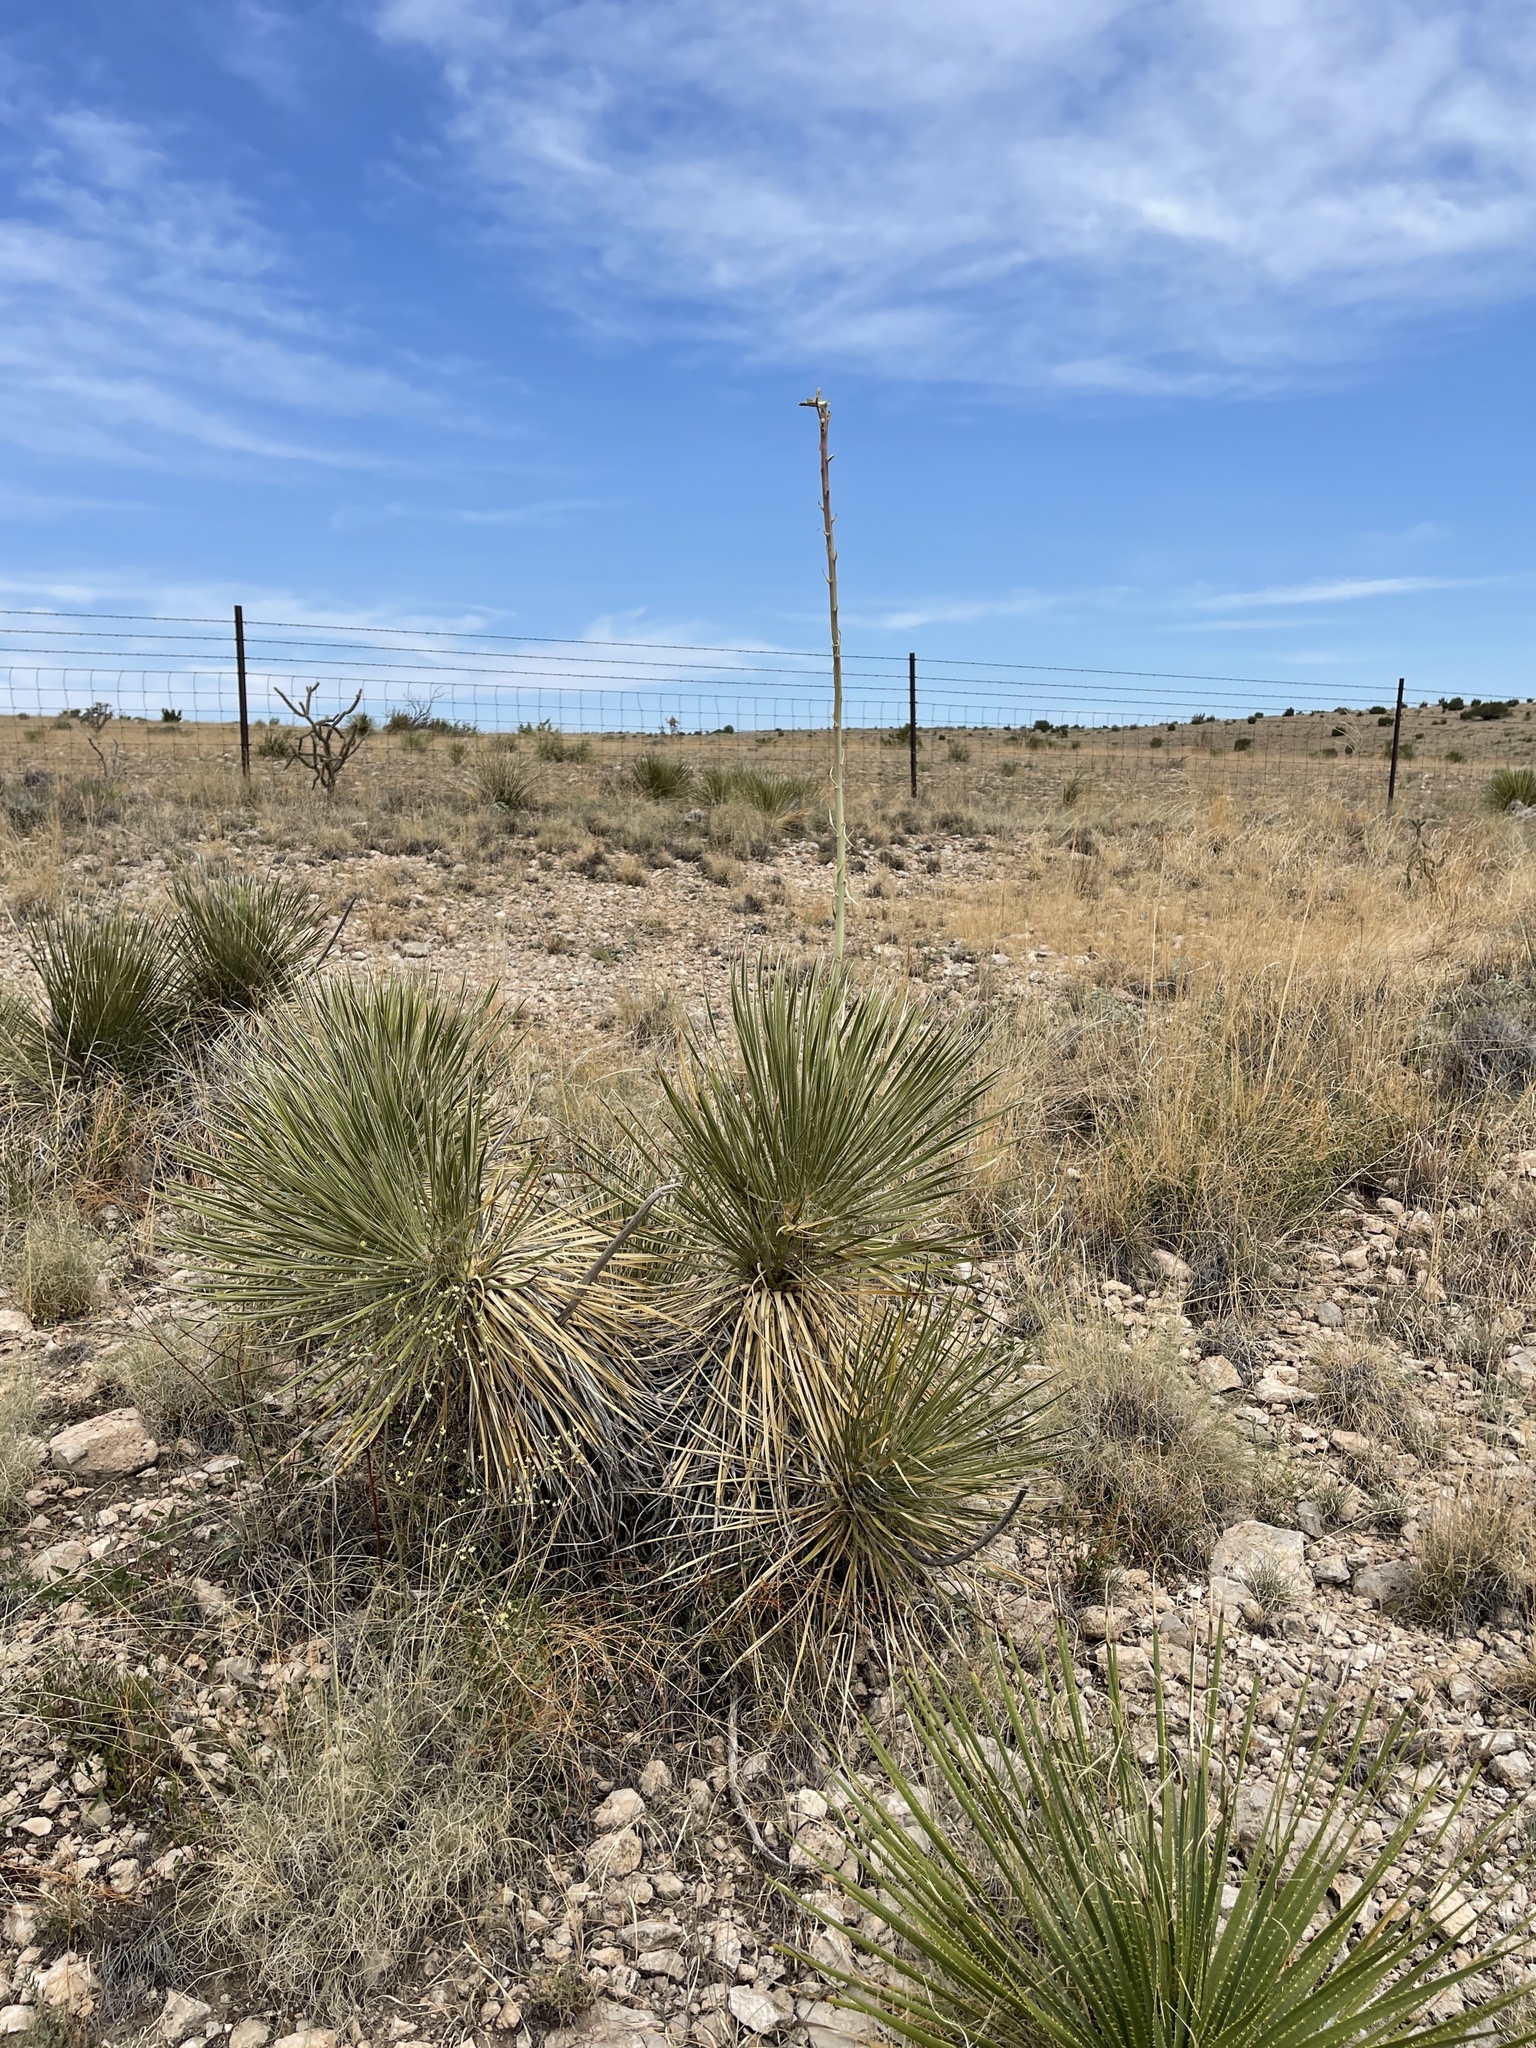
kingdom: Plantae
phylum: Tracheophyta
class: Liliopsida
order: Asparagales
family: Asparagaceae
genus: Yucca
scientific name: Yucca elata
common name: Palmella
